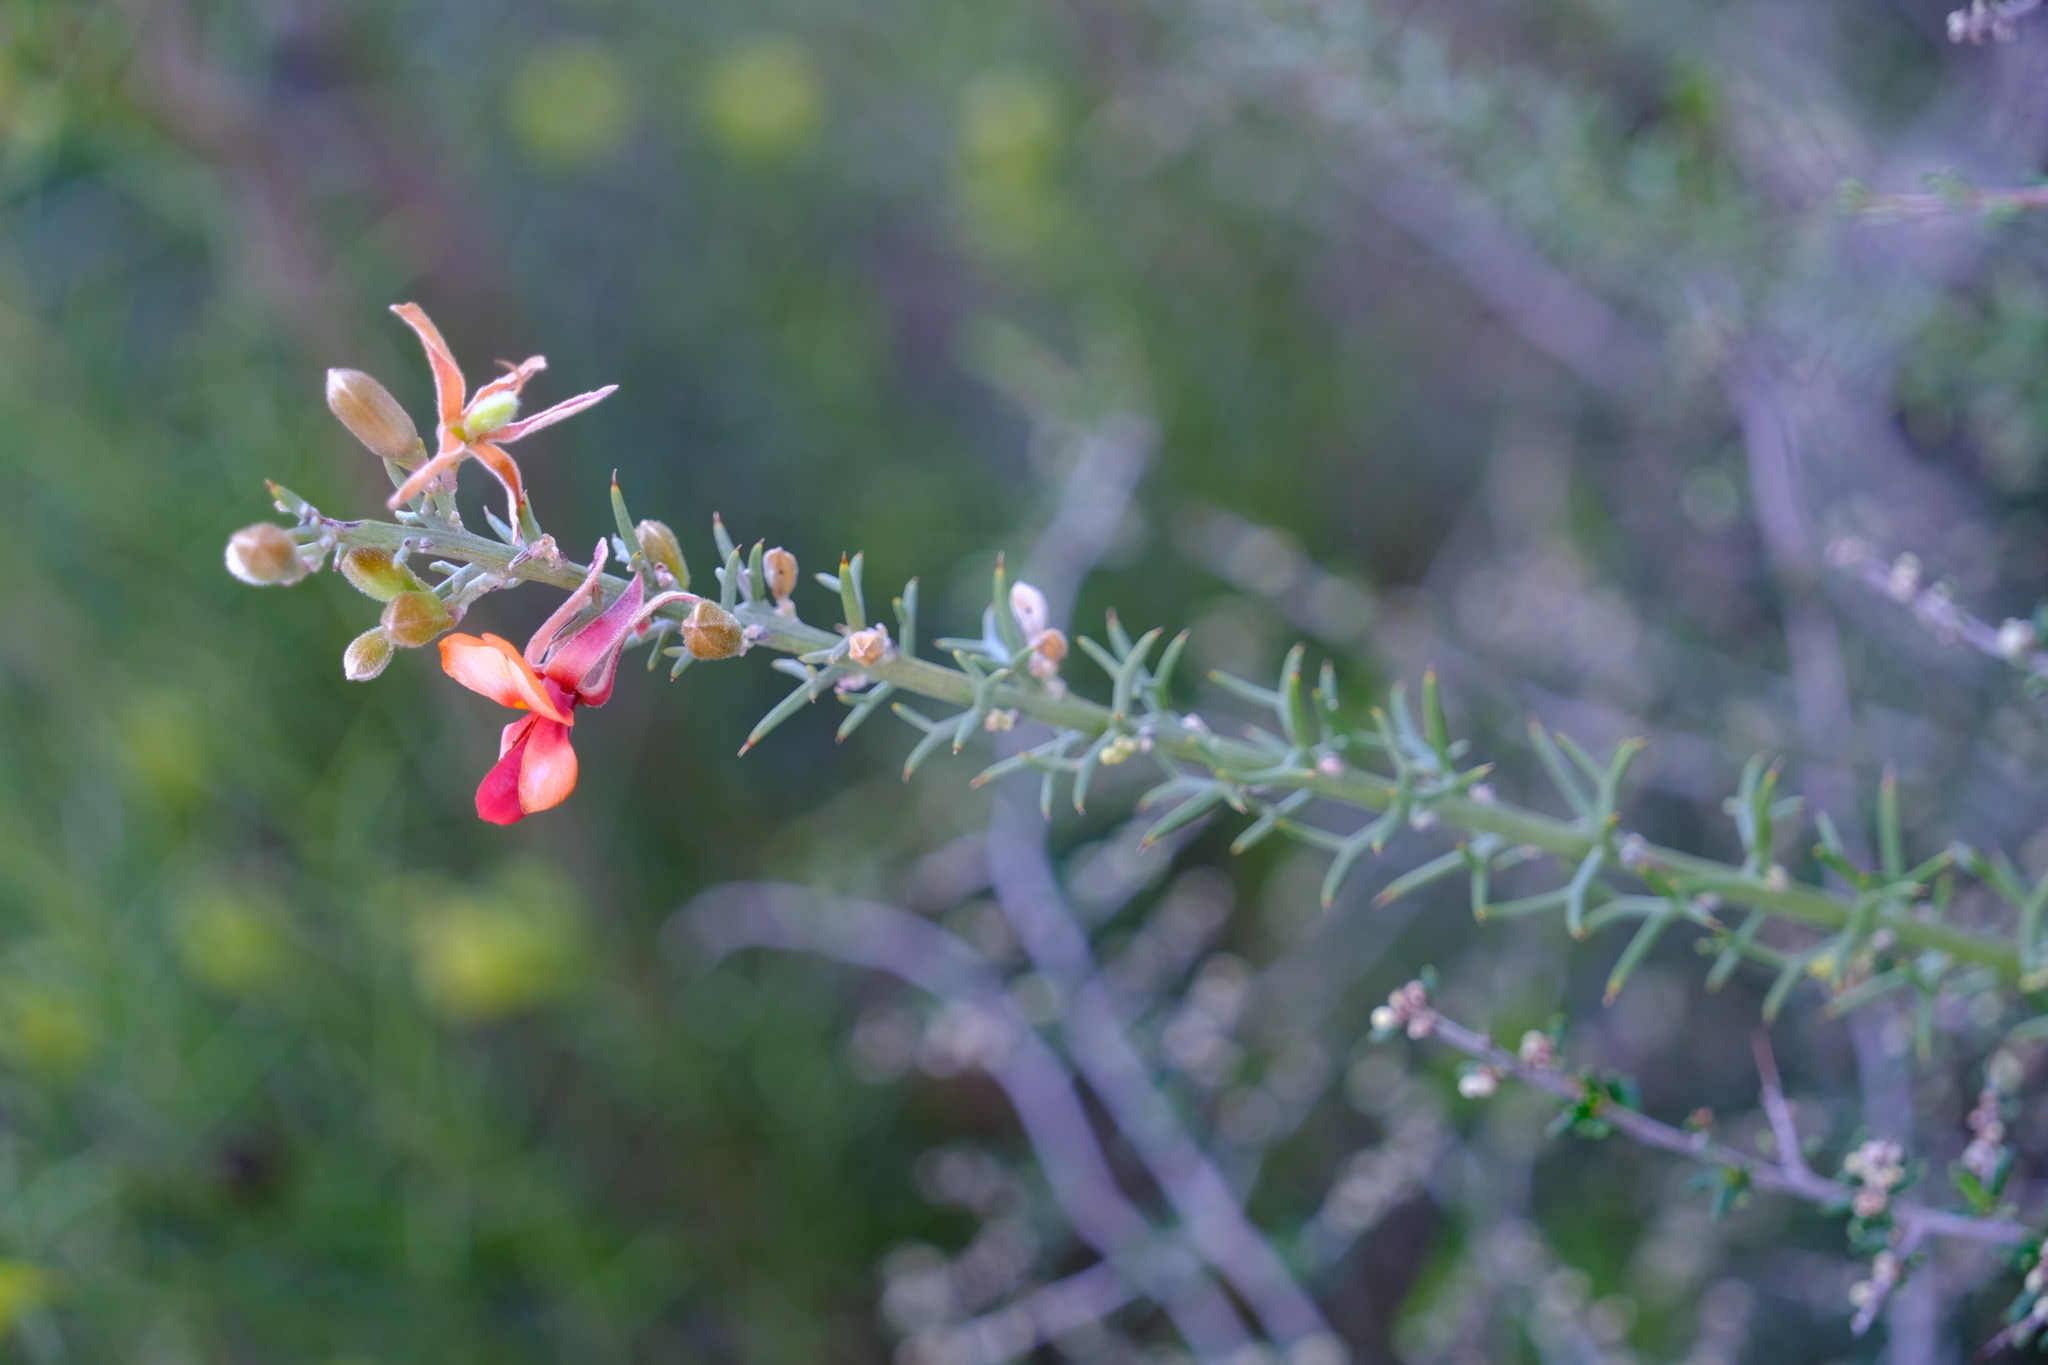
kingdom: Plantae
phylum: Tracheophyta
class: Magnoliopsida
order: Fabales
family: Fabaceae
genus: Jacksonia
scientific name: Jacksonia hakeoides
